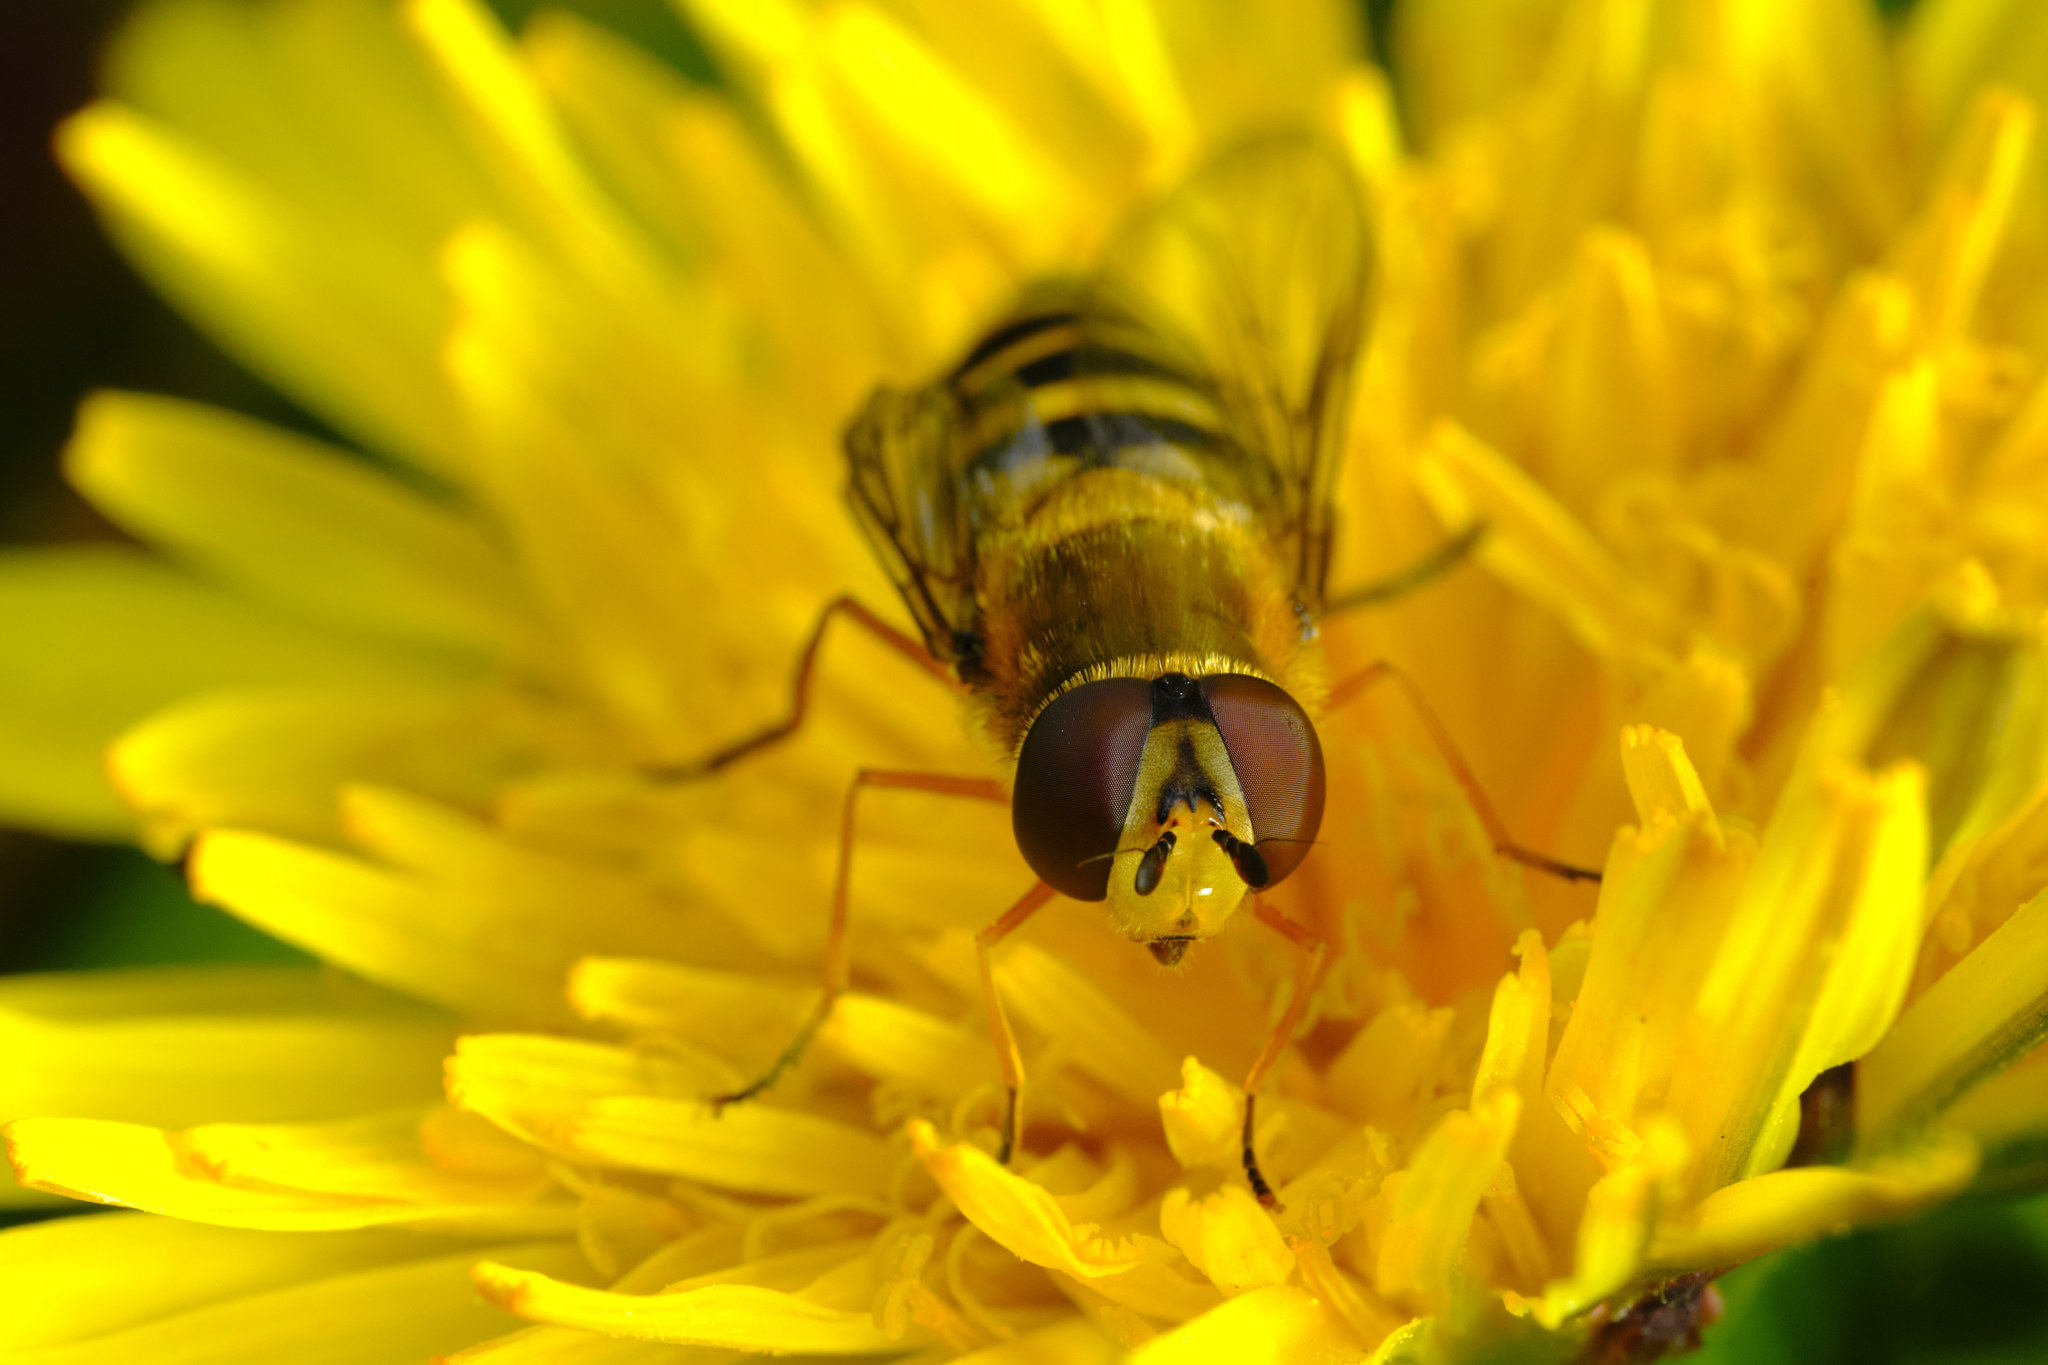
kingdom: Animalia
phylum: Arthropoda
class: Insecta
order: Diptera
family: Syrphidae
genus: Syrphus
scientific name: Syrphus ribesii
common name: Common flower fly
